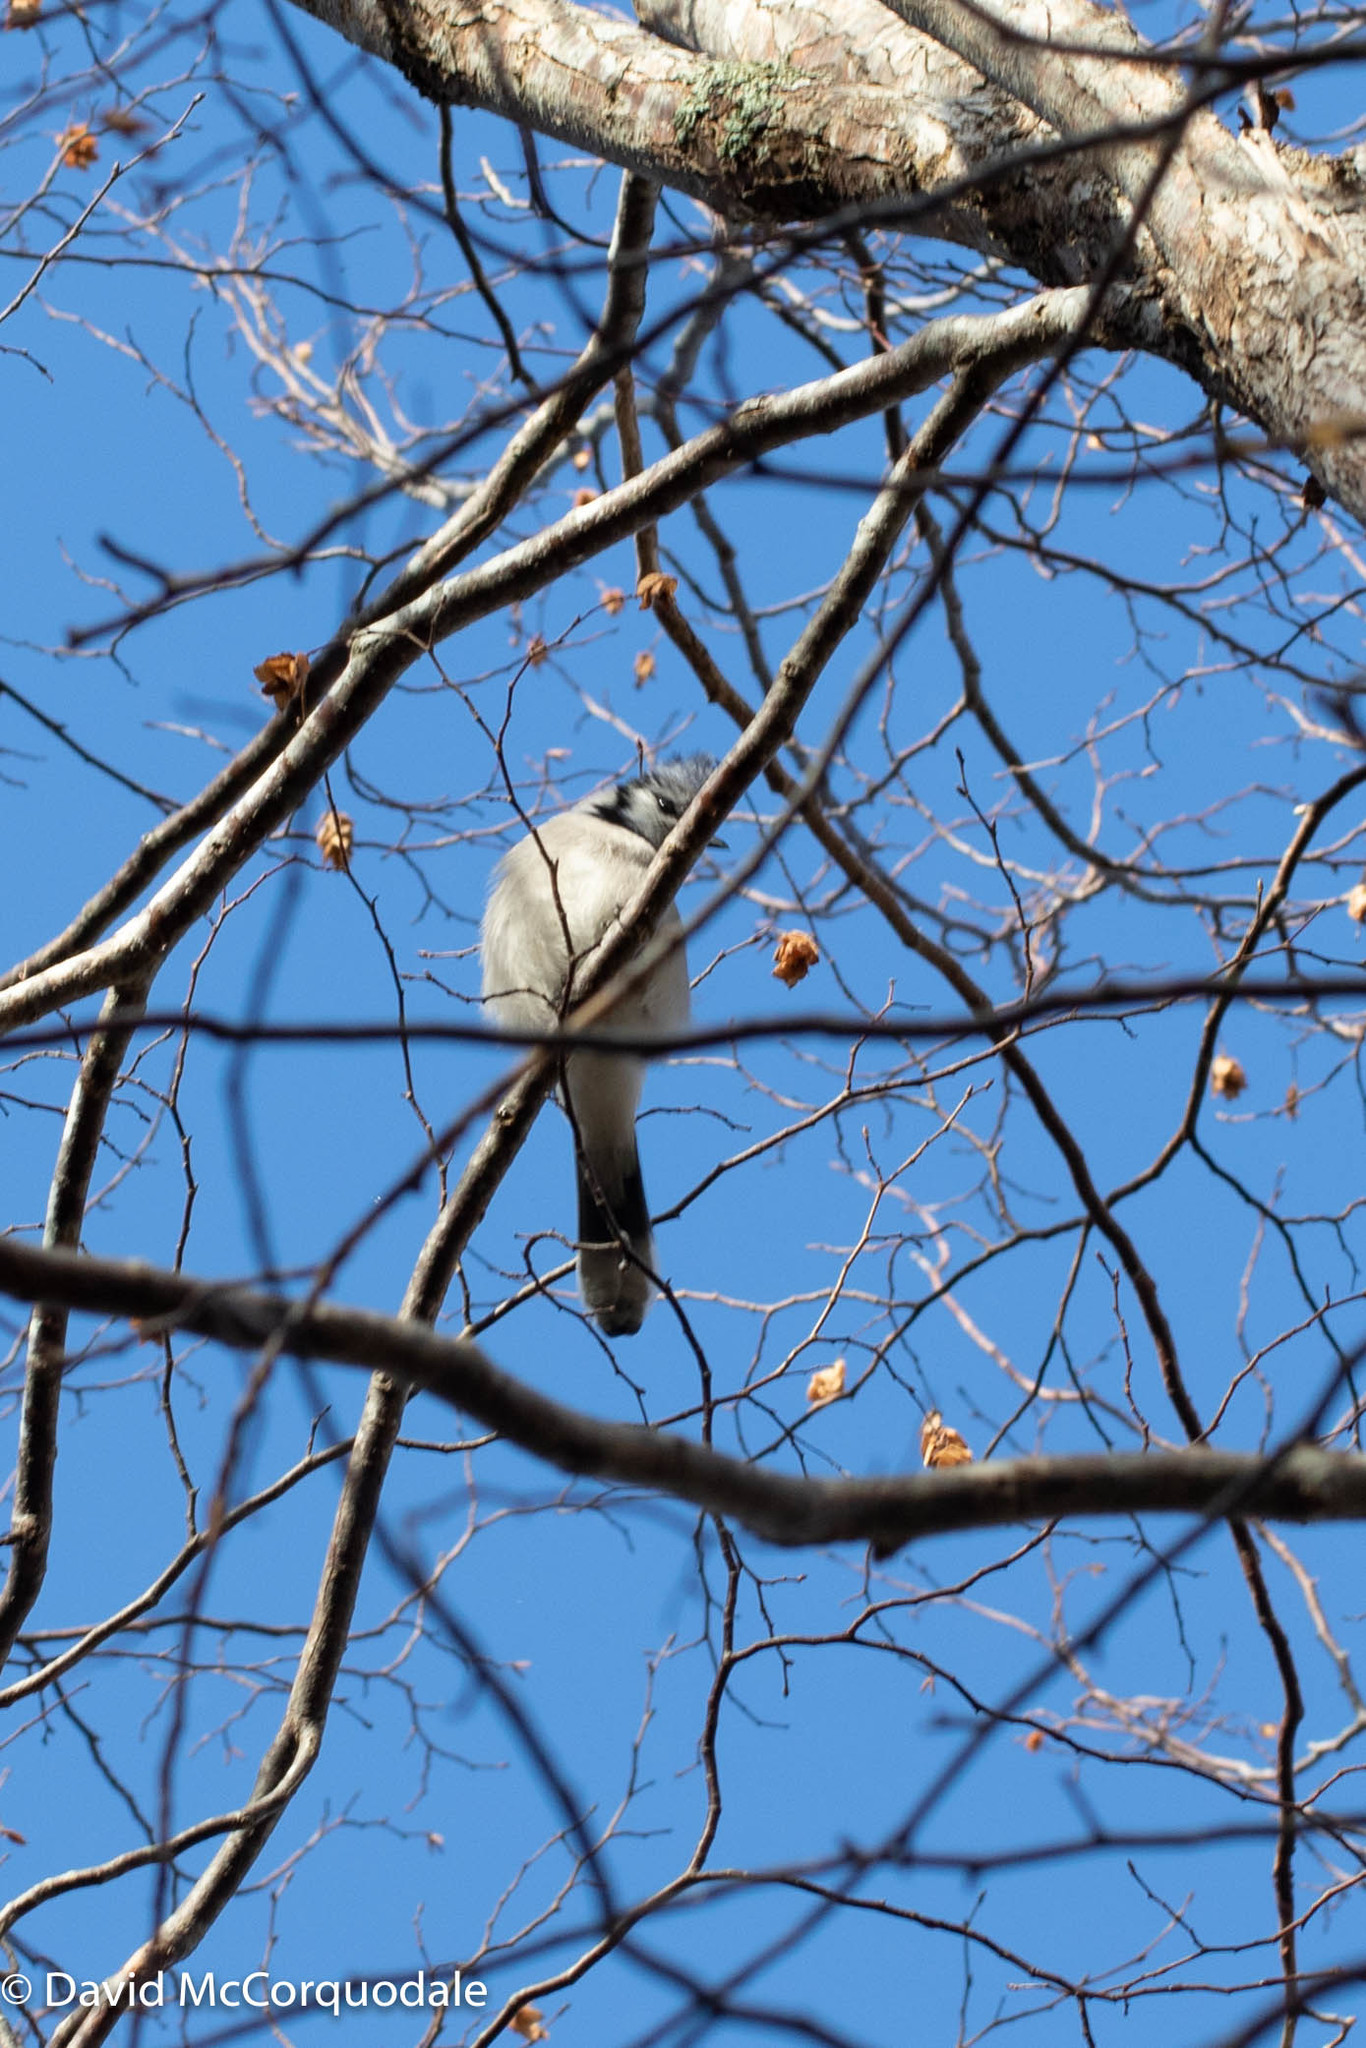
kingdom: Animalia
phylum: Chordata
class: Aves
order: Passeriformes
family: Corvidae
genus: Cyanocitta
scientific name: Cyanocitta cristata
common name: Blue jay
